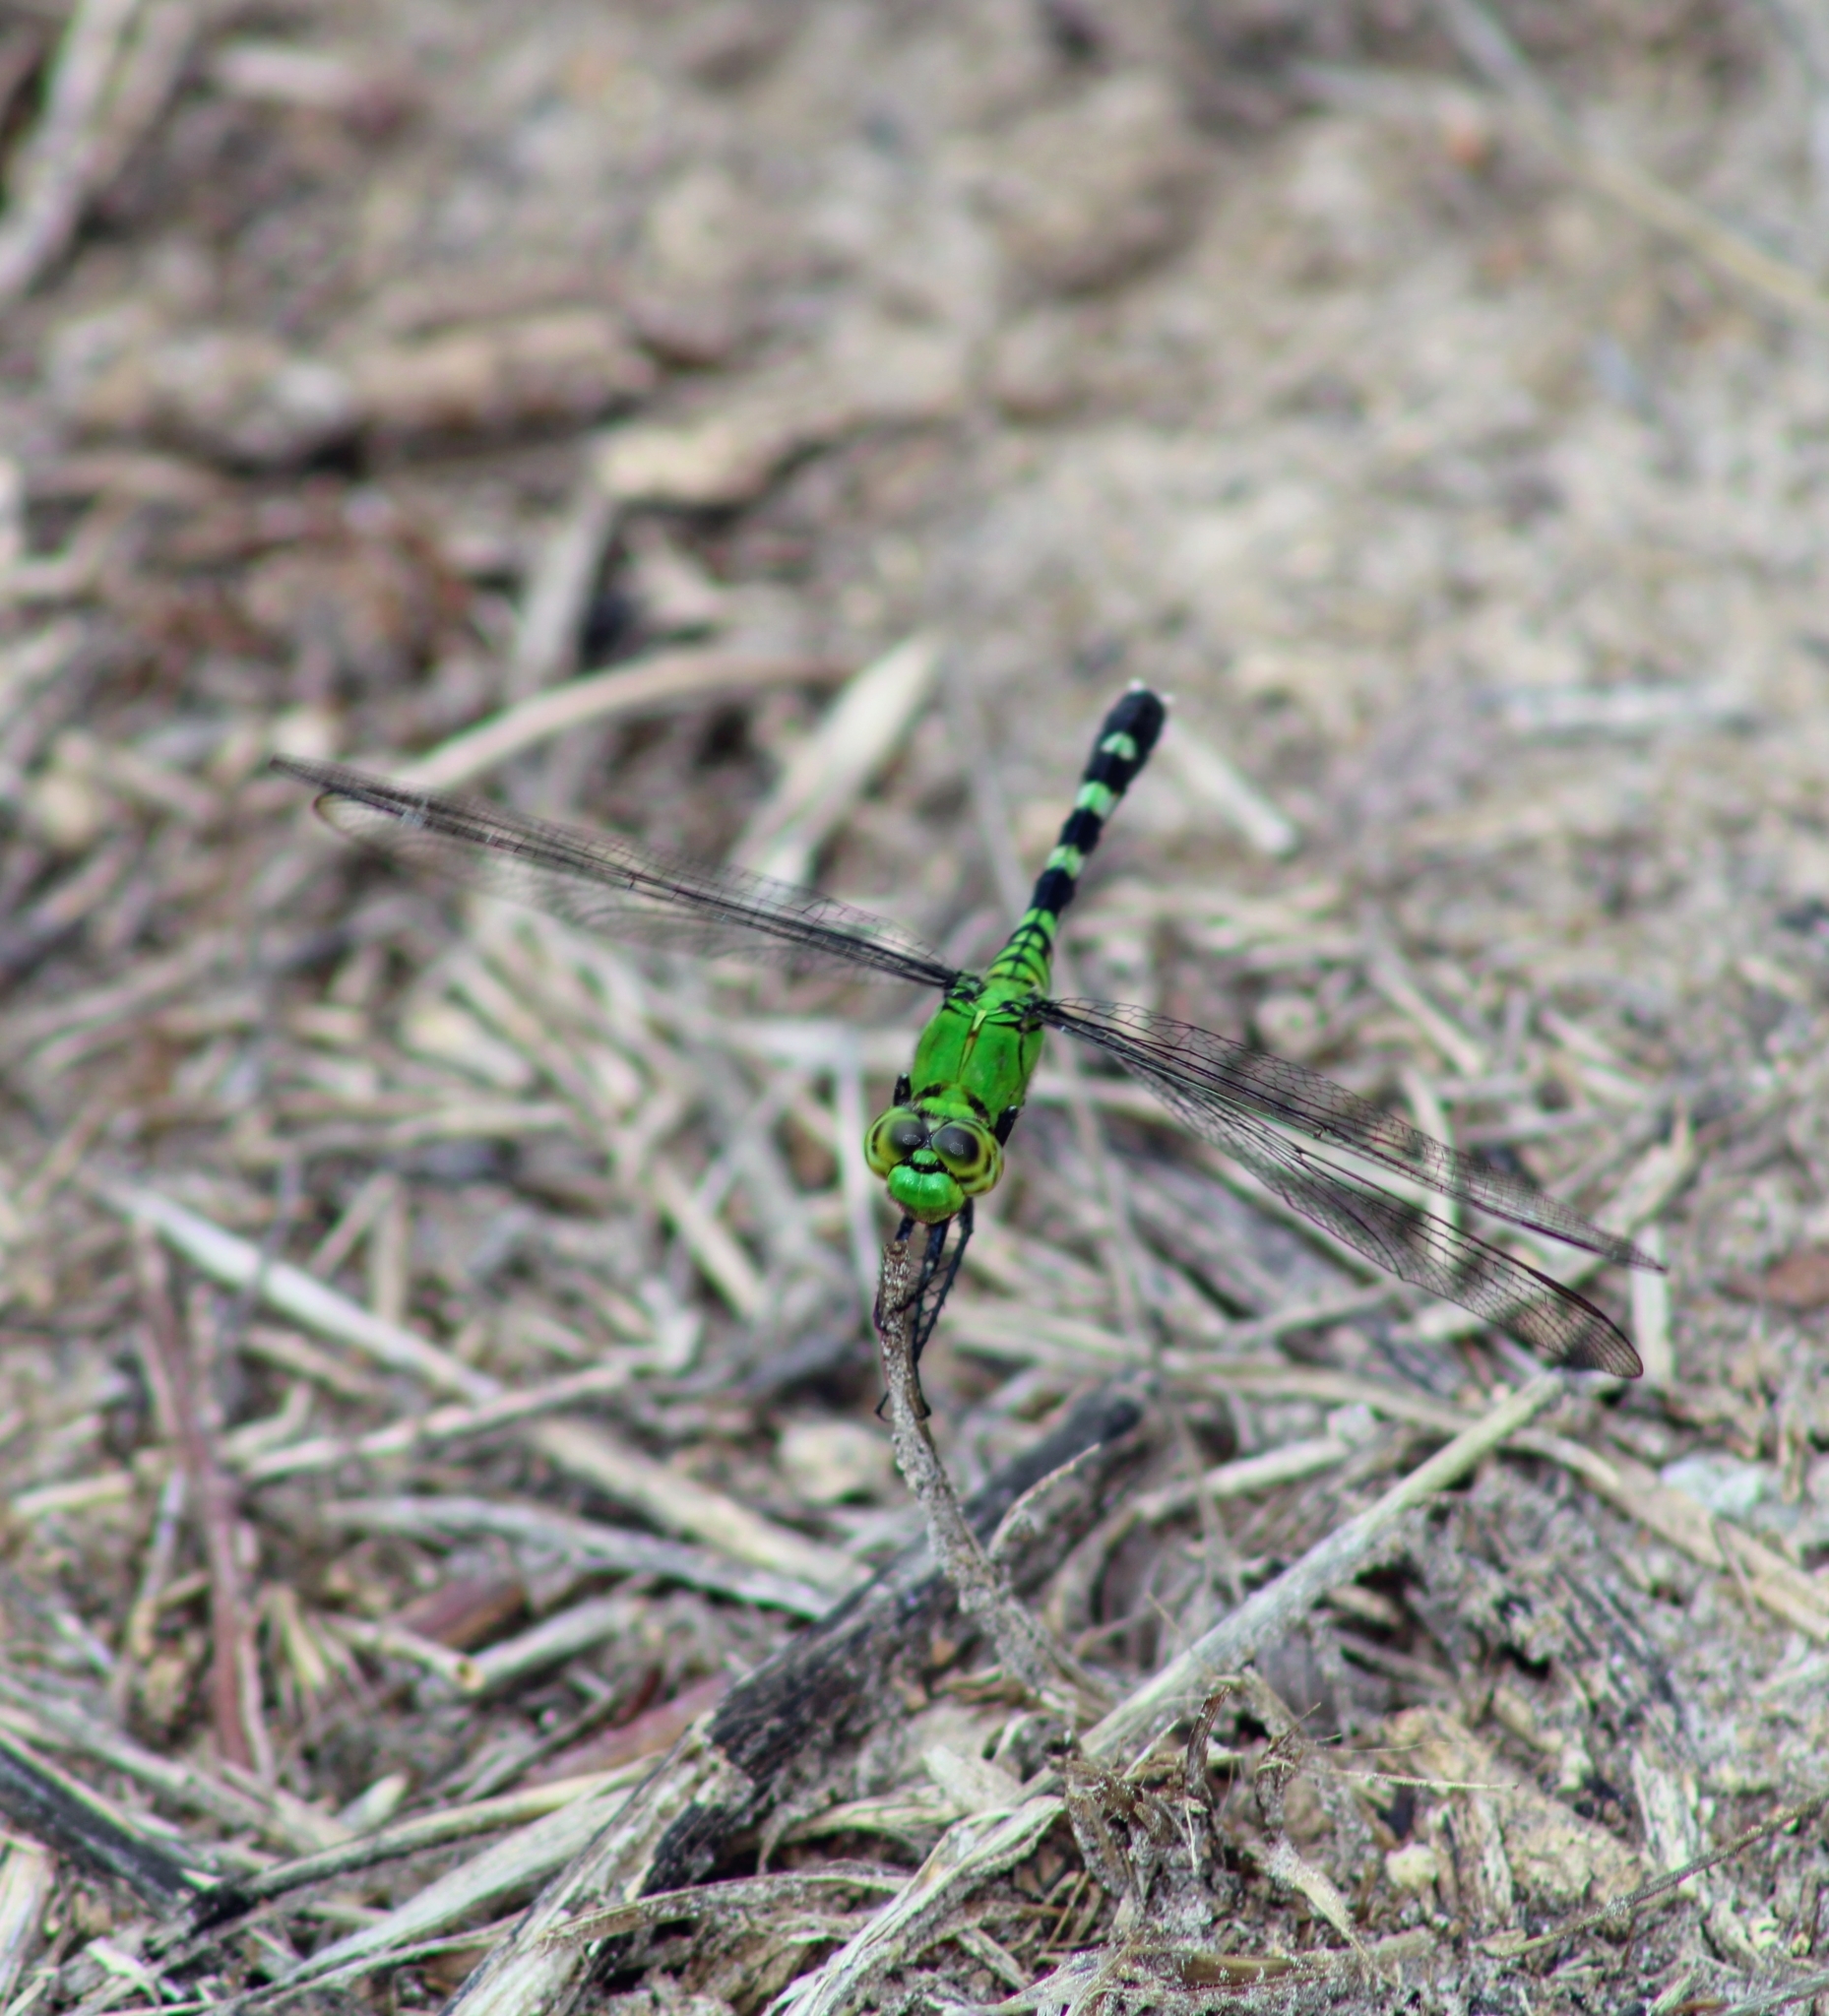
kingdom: Animalia
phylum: Arthropoda
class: Insecta
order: Odonata
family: Libellulidae
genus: Erythemis
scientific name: Erythemis simplicicollis
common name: Eastern pondhawk
